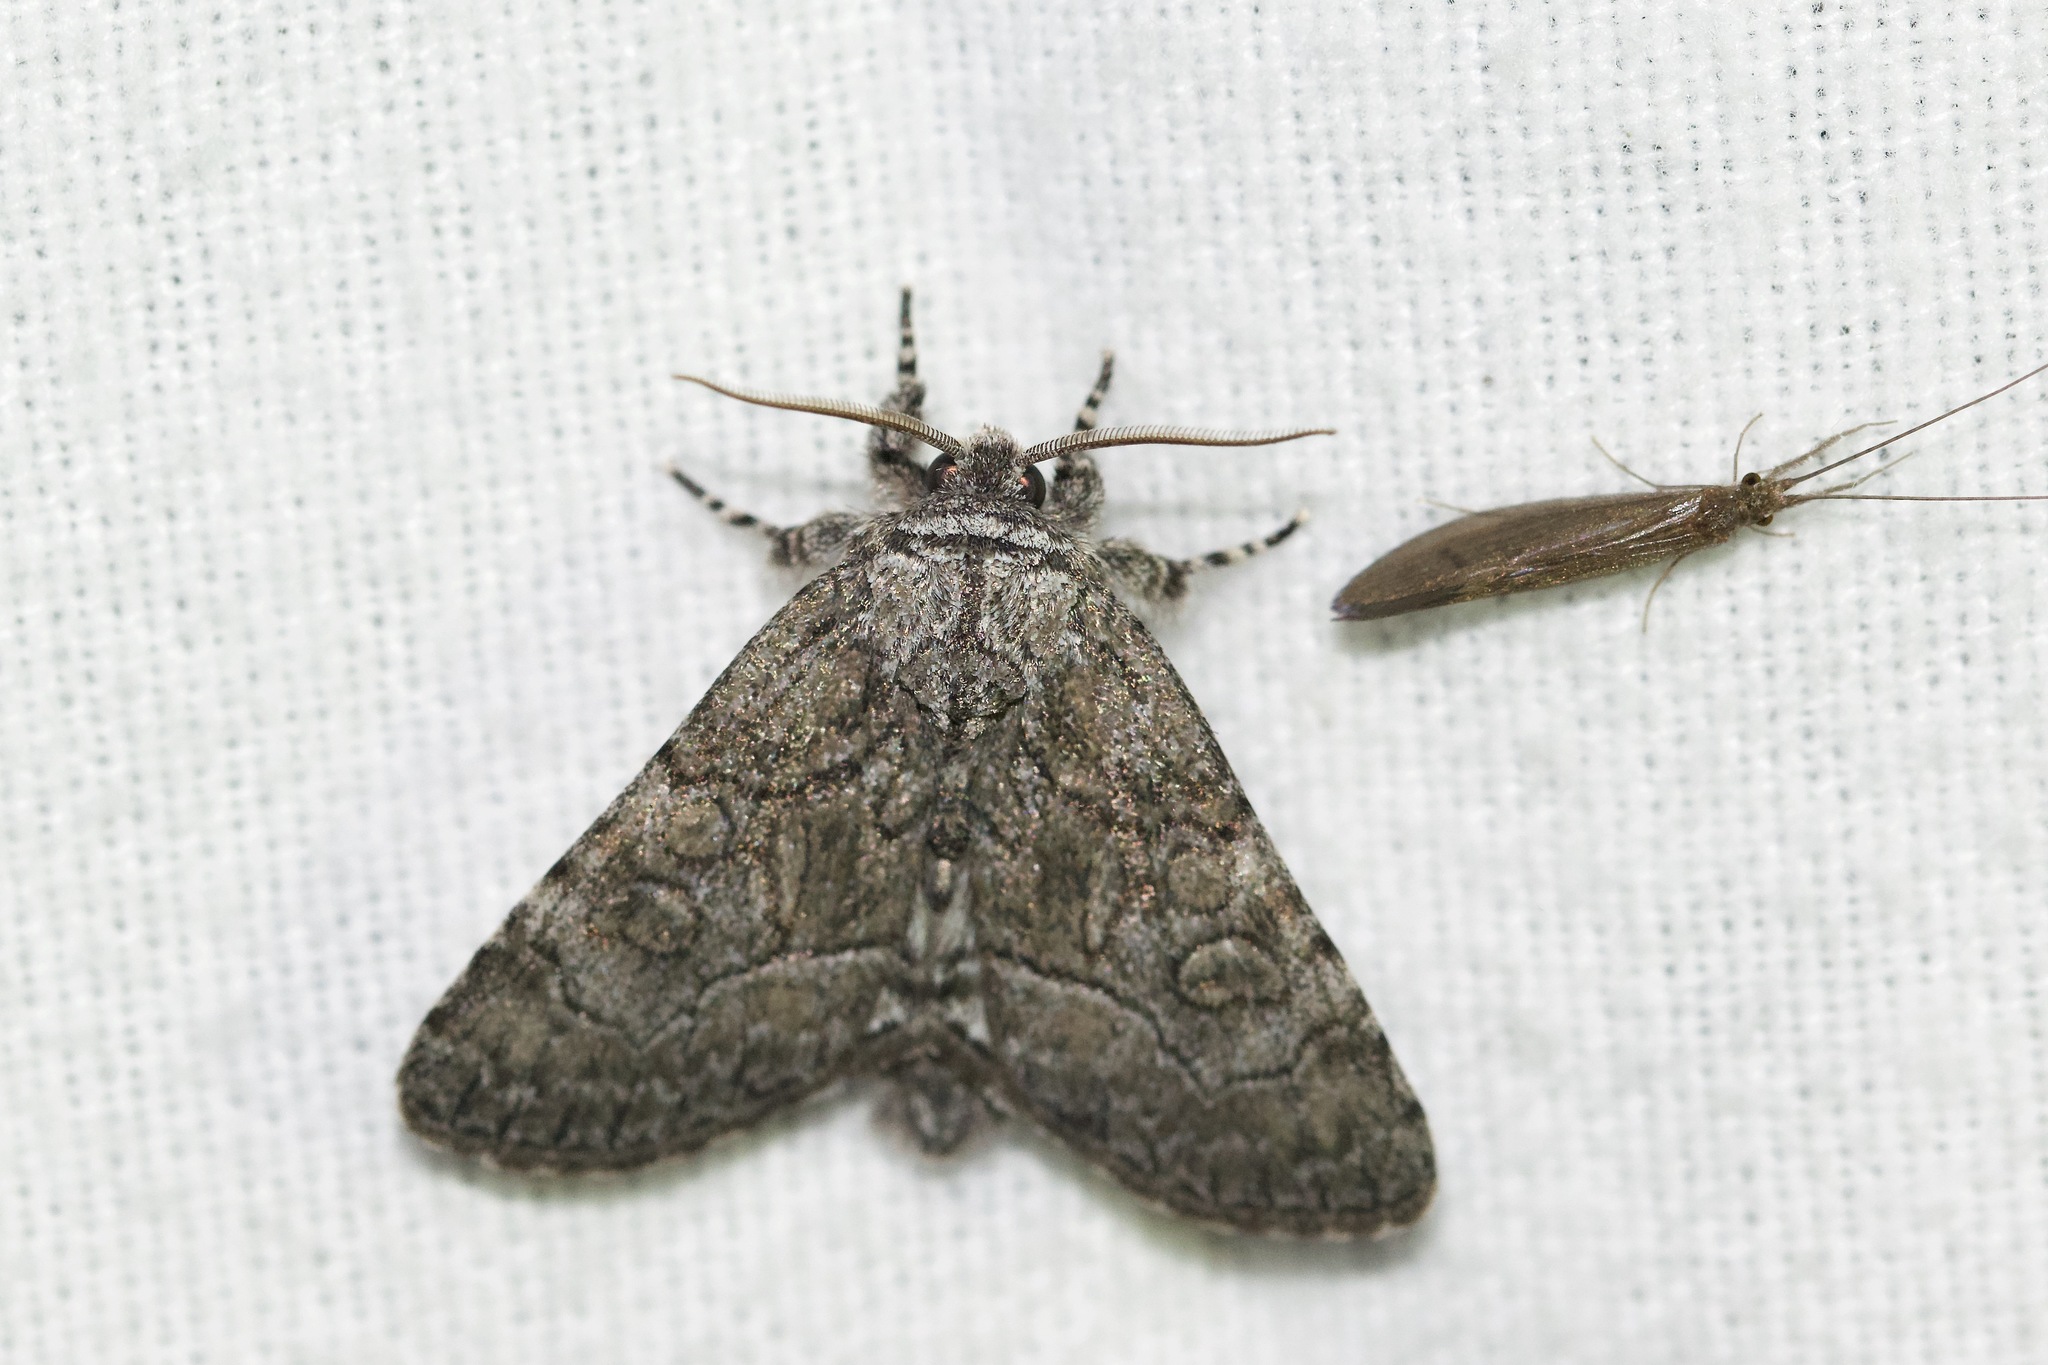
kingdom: Animalia
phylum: Arthropoda
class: Insecta
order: Lepidoptera
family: Noctuidae
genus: Raphia
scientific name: Raphia frater
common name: Brother
